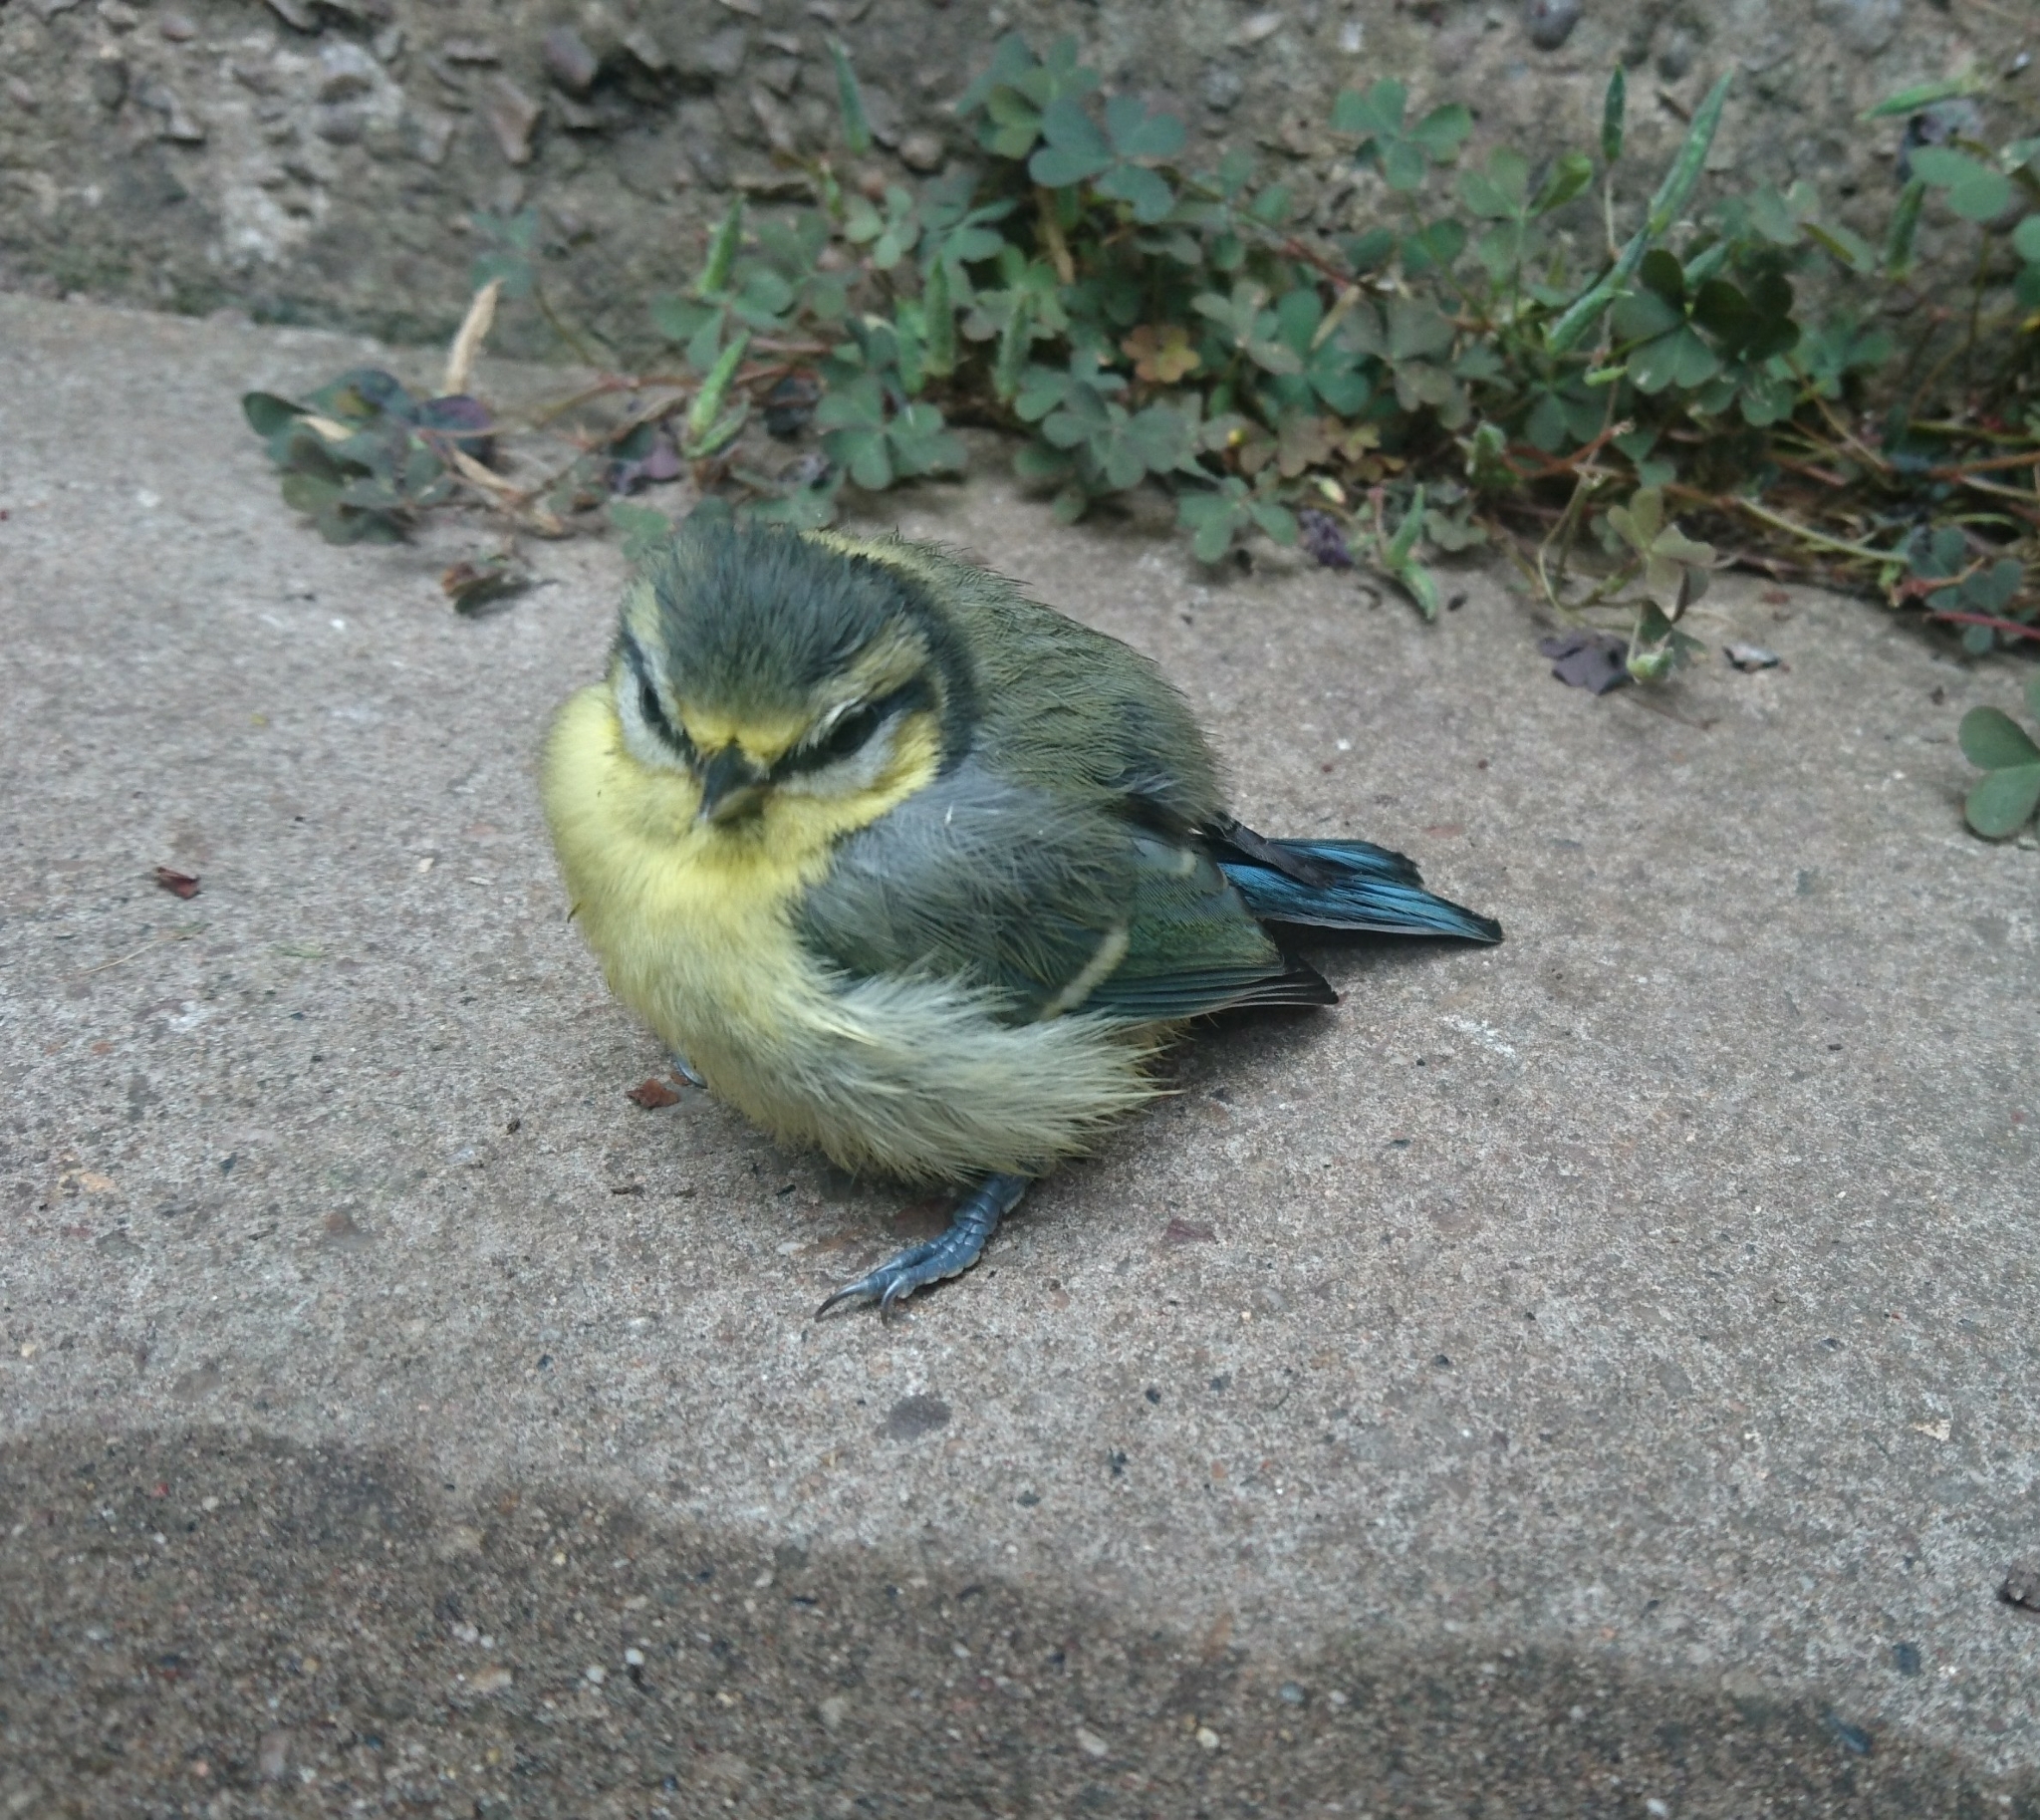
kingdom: Animalia
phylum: Chordata
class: Aves
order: Passeriformes
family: Paridae
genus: Cyanistes
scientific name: Cyanistes caeruleus
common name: Eurasian blue tit
